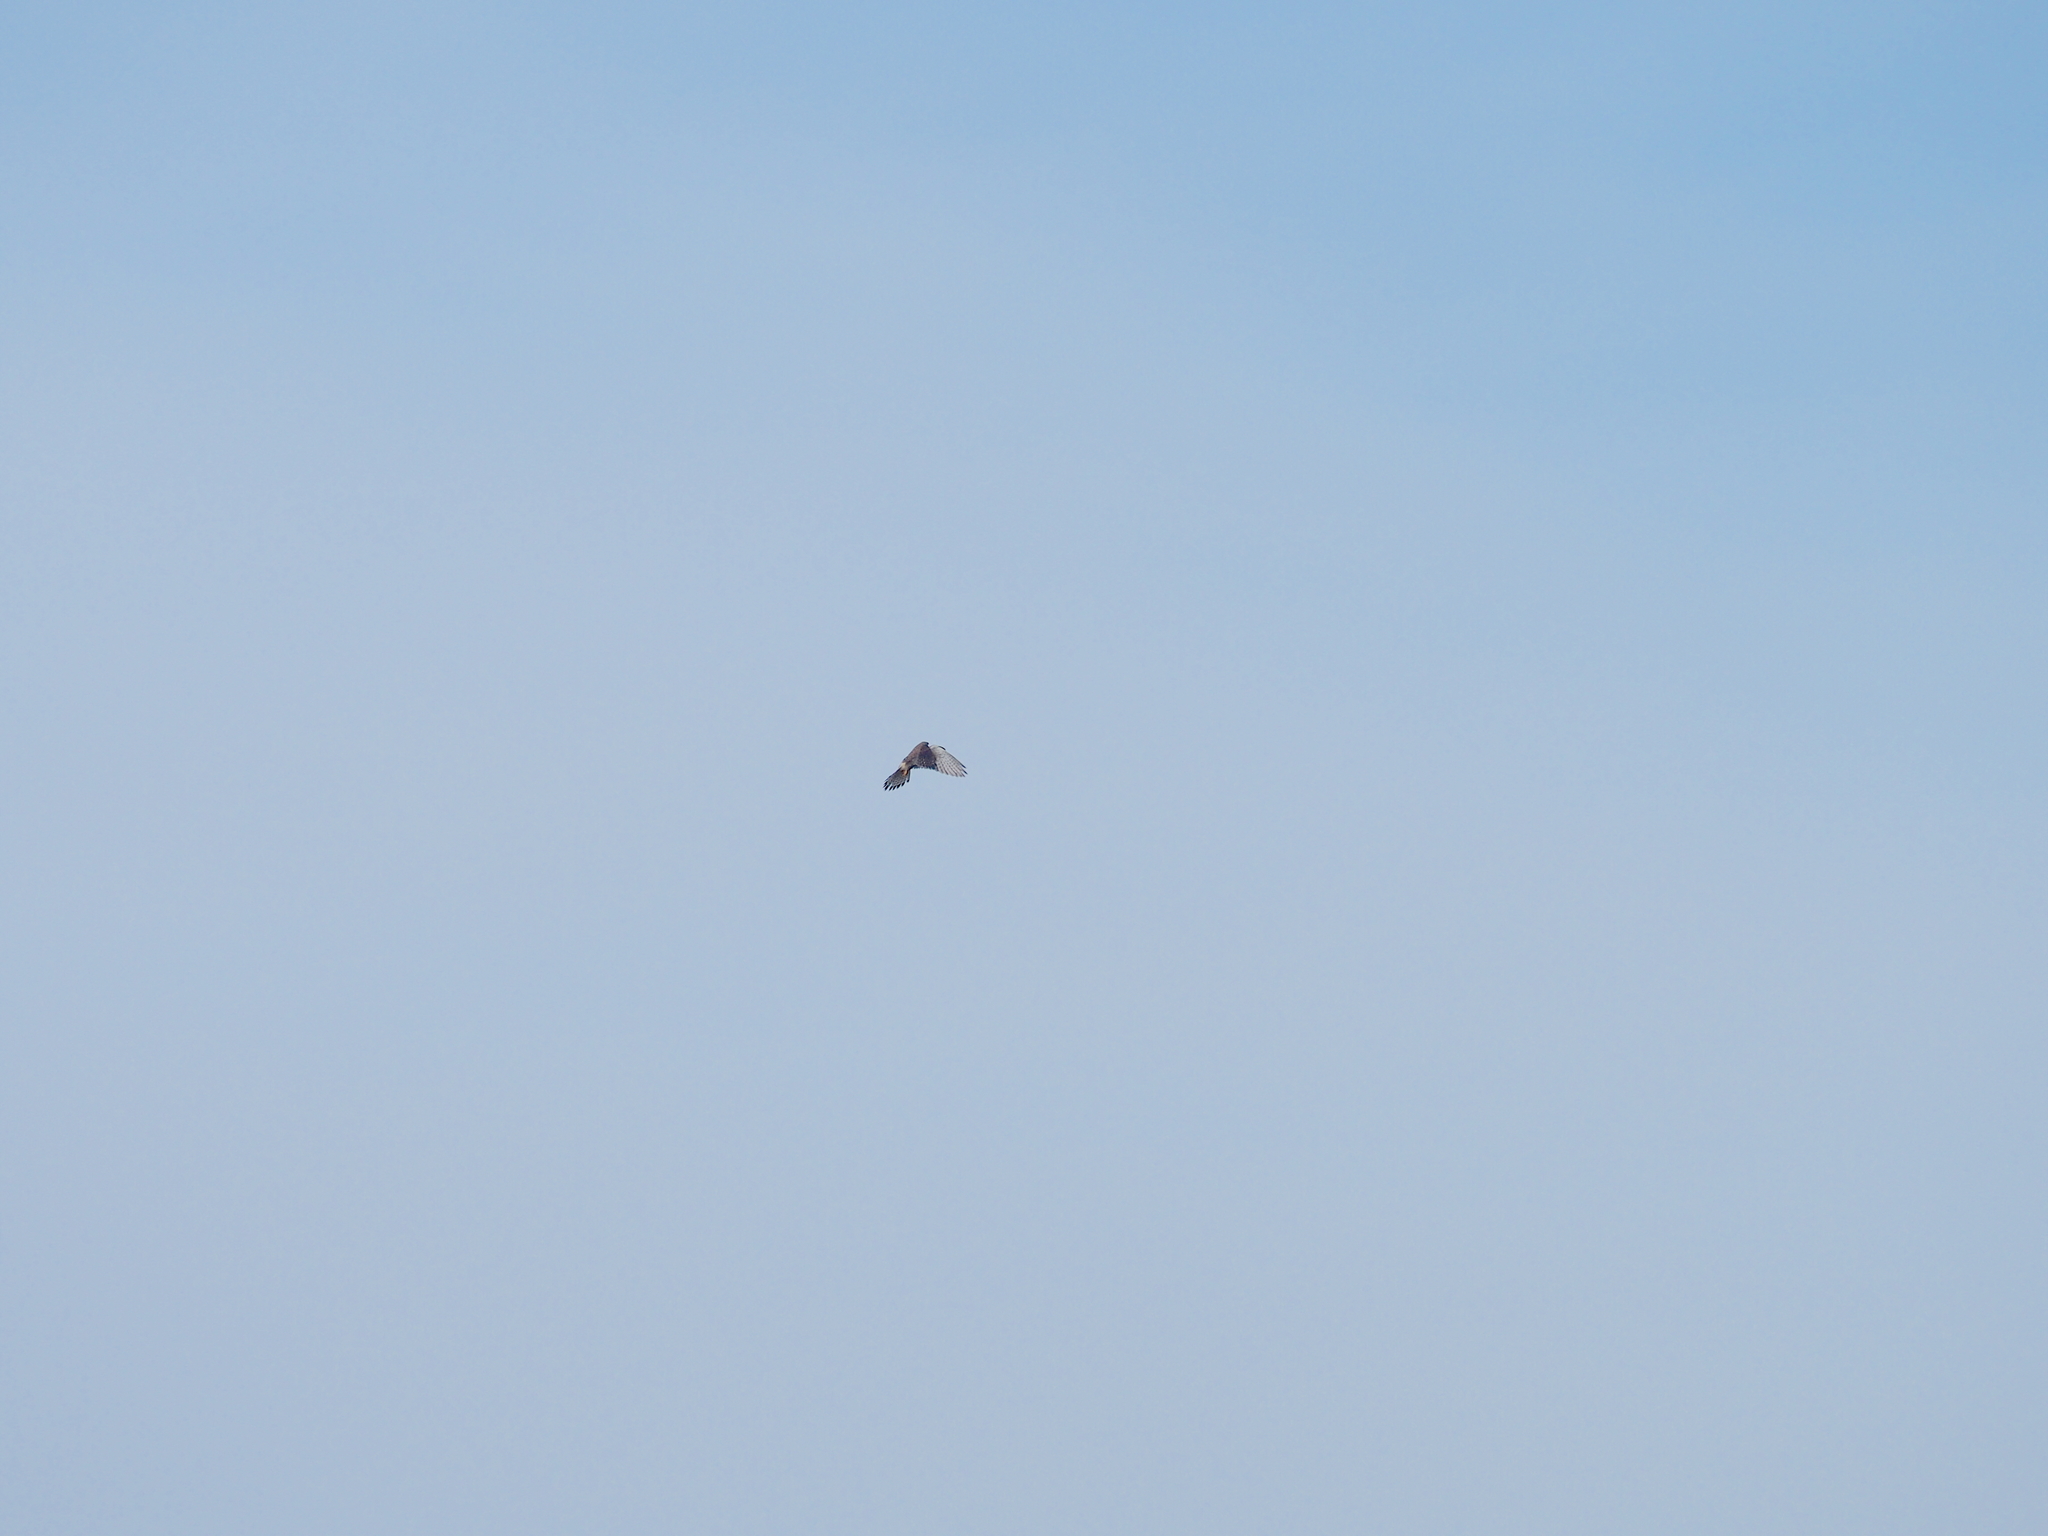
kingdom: Animalia
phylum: Chordata
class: Aves
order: Falconiformes
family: Falconidae
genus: Falco
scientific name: Falco tinnunculus
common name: Common kestrel
